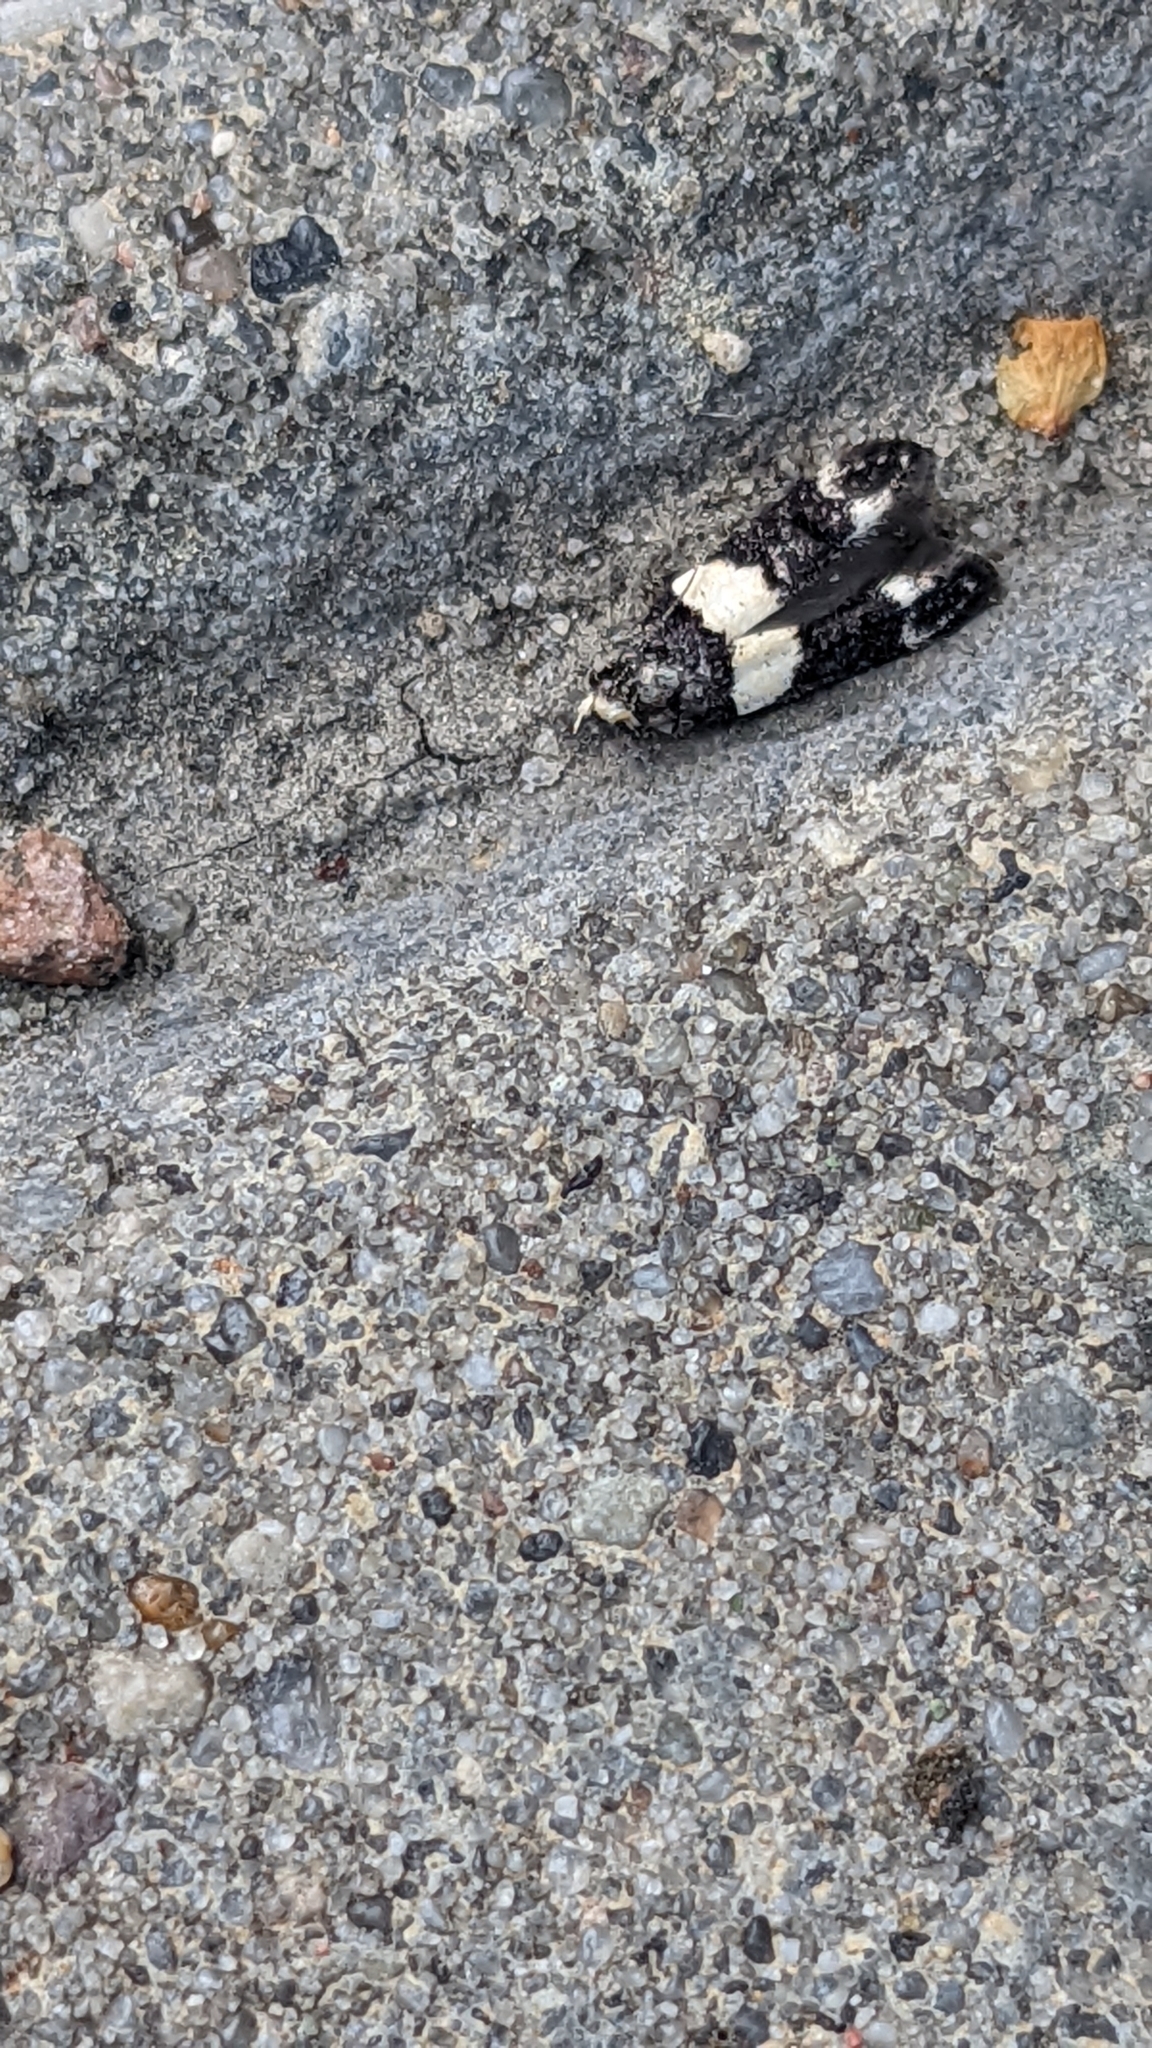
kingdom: Animalia
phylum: Arthropoda
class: Insecta
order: Lepidoptera
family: Gelechiidae
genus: Recurvaria
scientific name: Recurvaria leucatella
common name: White-barred groundling
